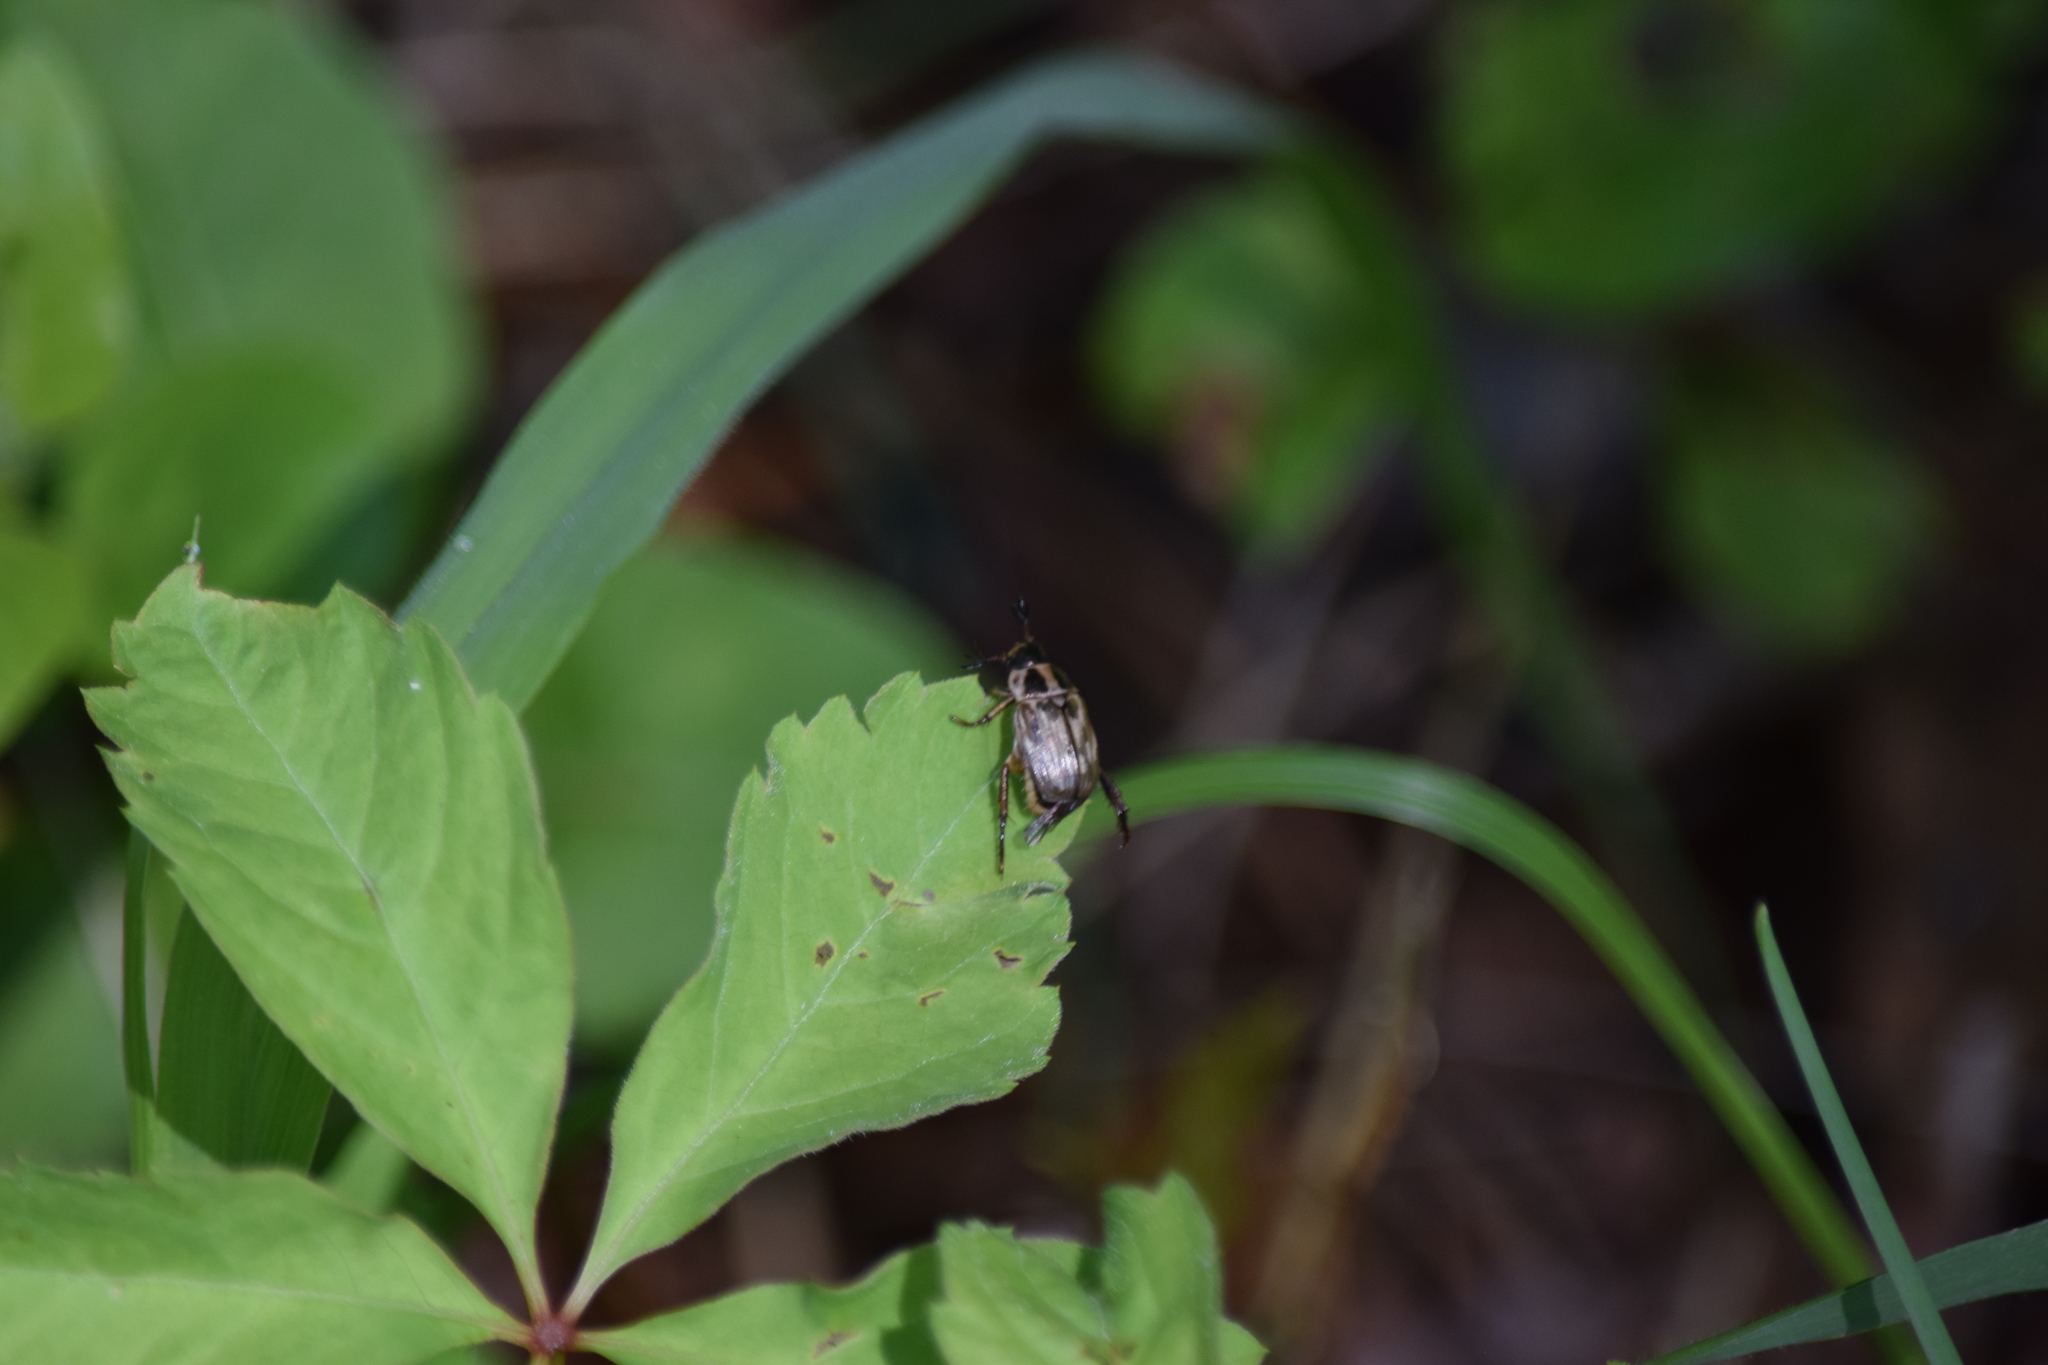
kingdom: Animalia
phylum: Arthropoda
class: Insecta
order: Coleoptera
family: Scarabaeidae
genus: Exomala
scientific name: Exomala orientalis
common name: Oriental beetle
